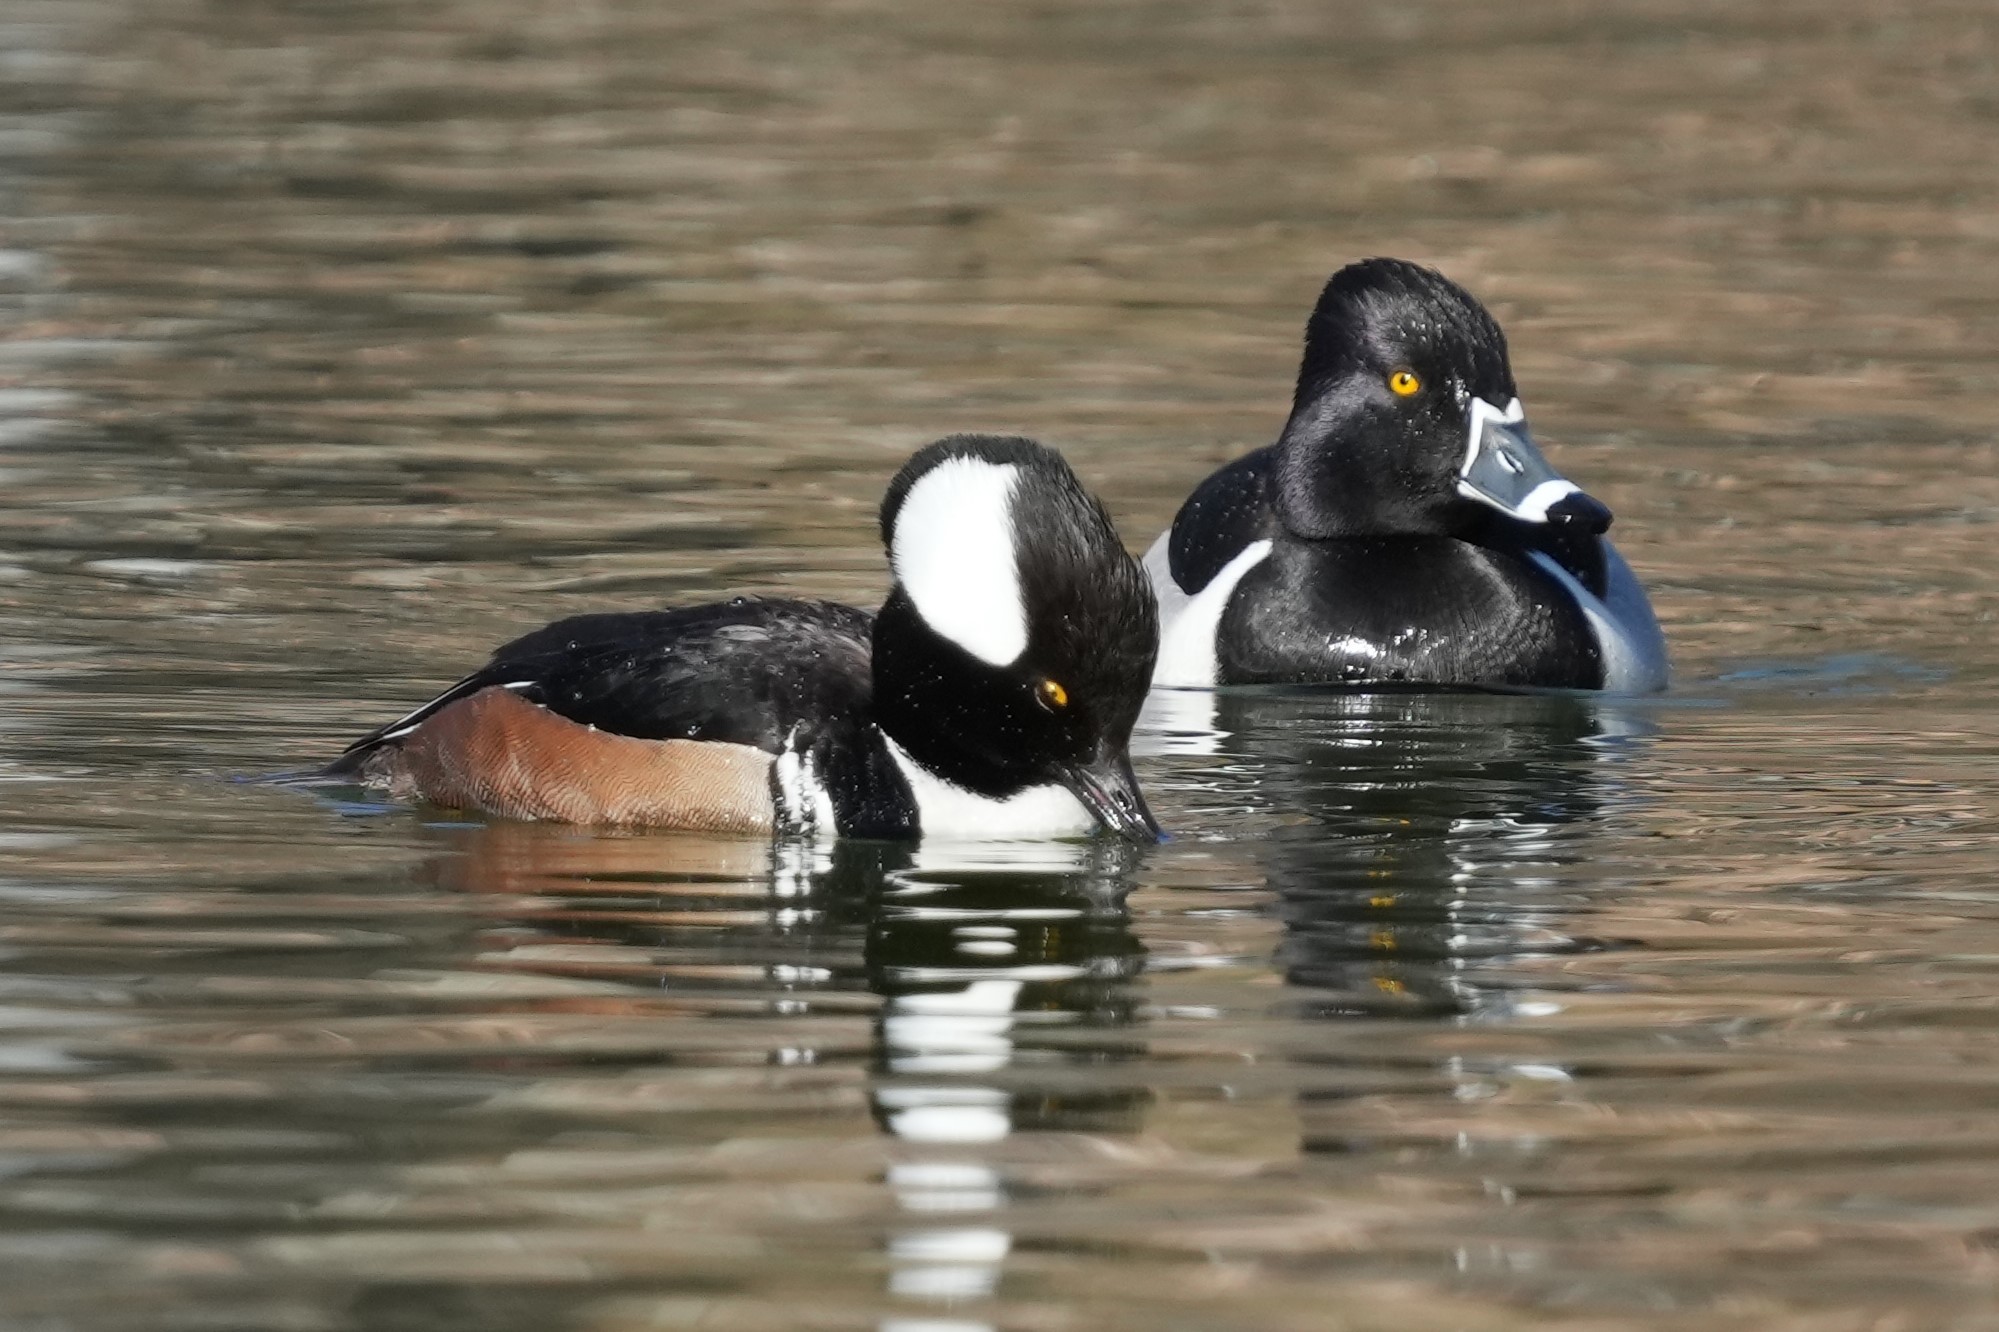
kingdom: Animalia
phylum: Chordata
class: Aves
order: Anseriformes
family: Anatidae
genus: Lophodytes
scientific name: Lophodytes cucullatus
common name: Hooded merganser
